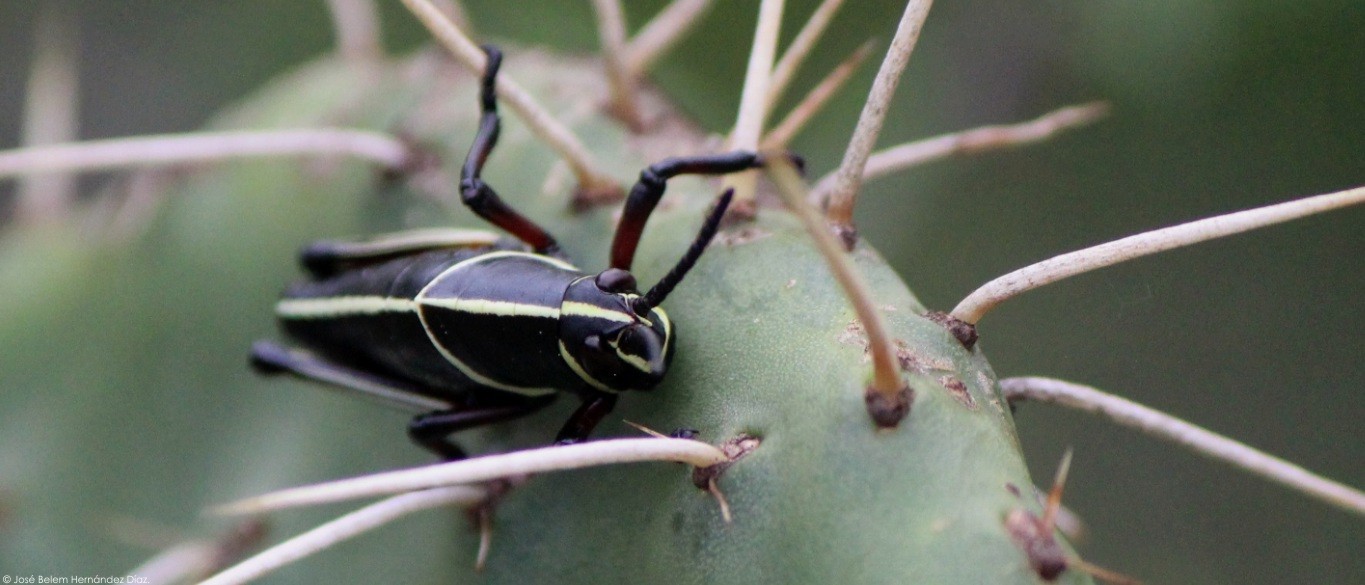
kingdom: Animalia
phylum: Arthropoda
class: Insecta
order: Orthoptera
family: Romaleidae
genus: Romalea
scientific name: Romalea
